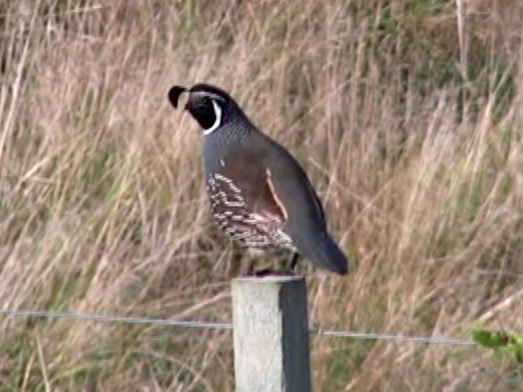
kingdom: Animalia
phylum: Chordata
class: Aves
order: Galliformes
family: Odontophoridae
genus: Callipepla
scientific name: Callipepla californica
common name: California quail
